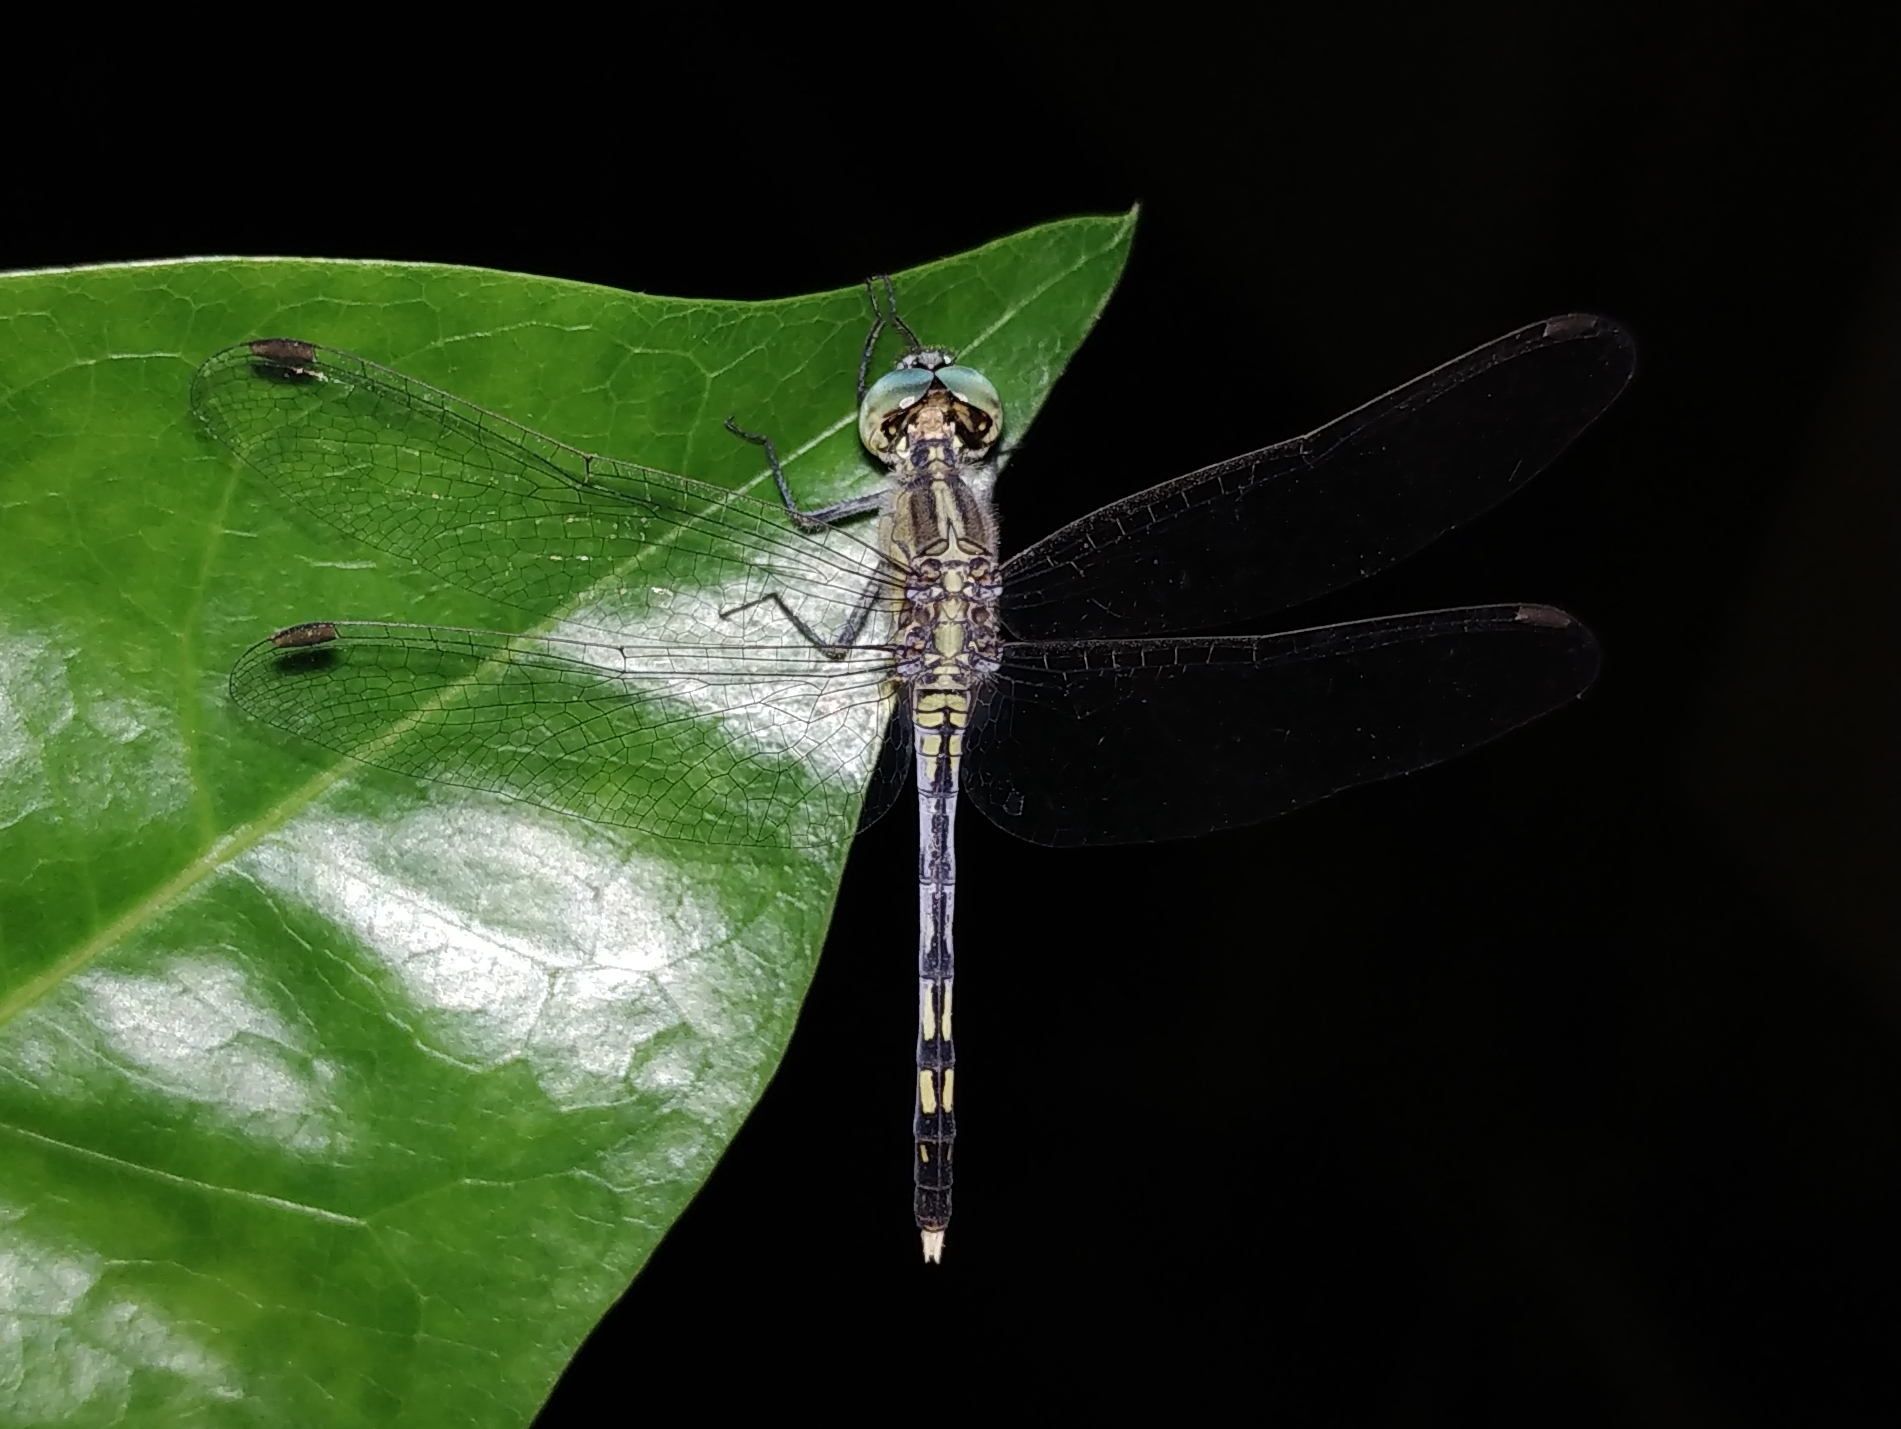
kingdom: Animalia
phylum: Arthropoda
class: Insecta
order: Odonata
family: Libellulidae
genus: Diplacodes
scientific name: Diplacodes trivialis
